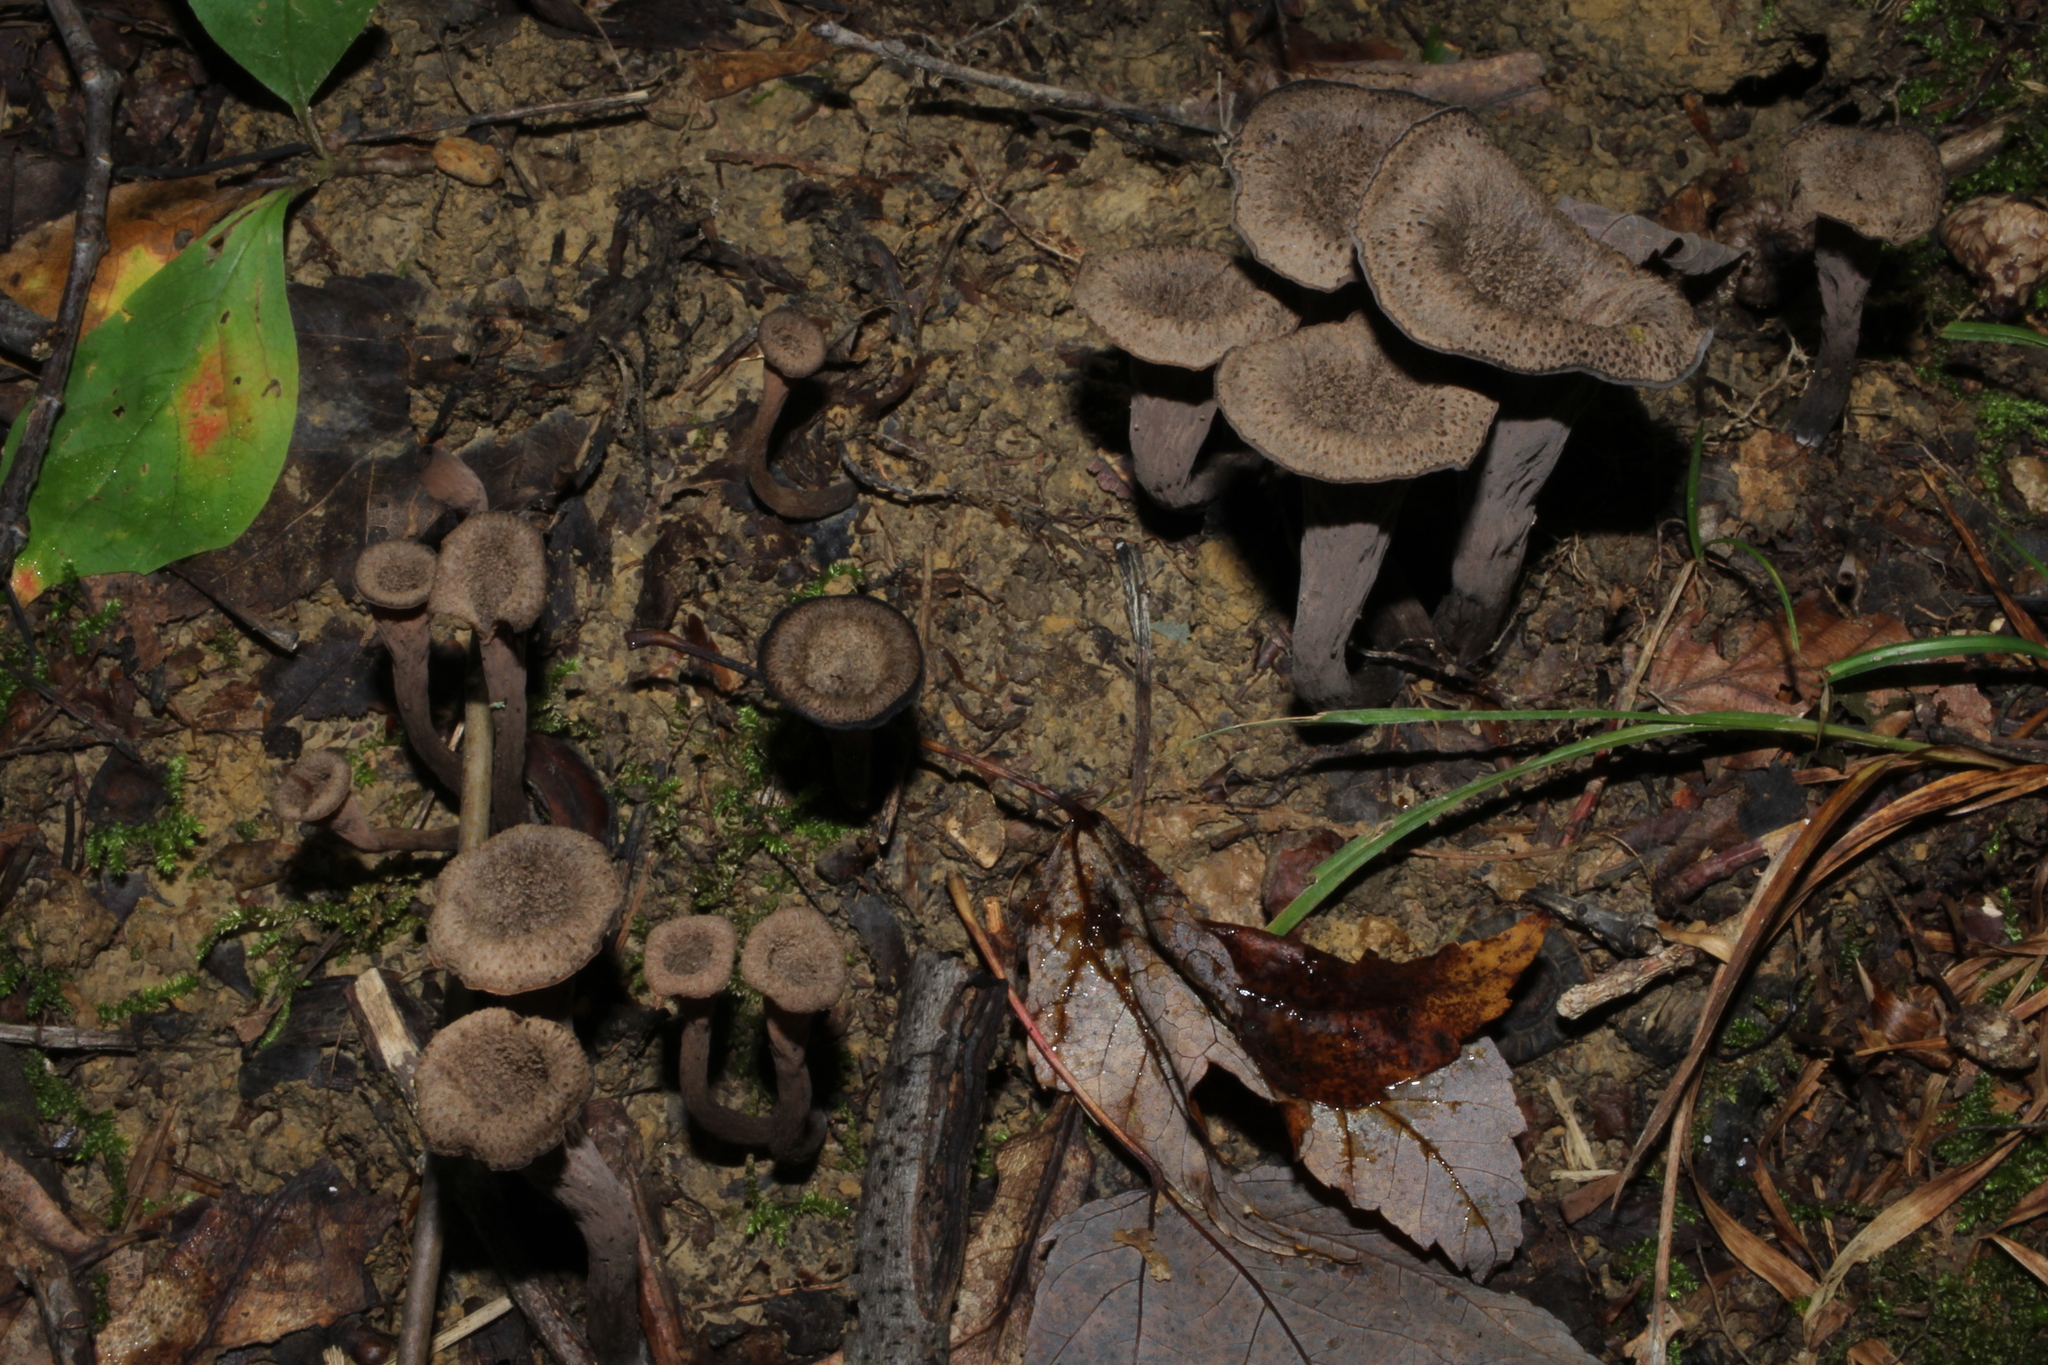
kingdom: Fungi
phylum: Basidiomycota
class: Agaricomycetes
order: Cantharellales
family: Hydnaceae
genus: Craterellus
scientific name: Craterellus cornucopioides
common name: Horn of plenty
